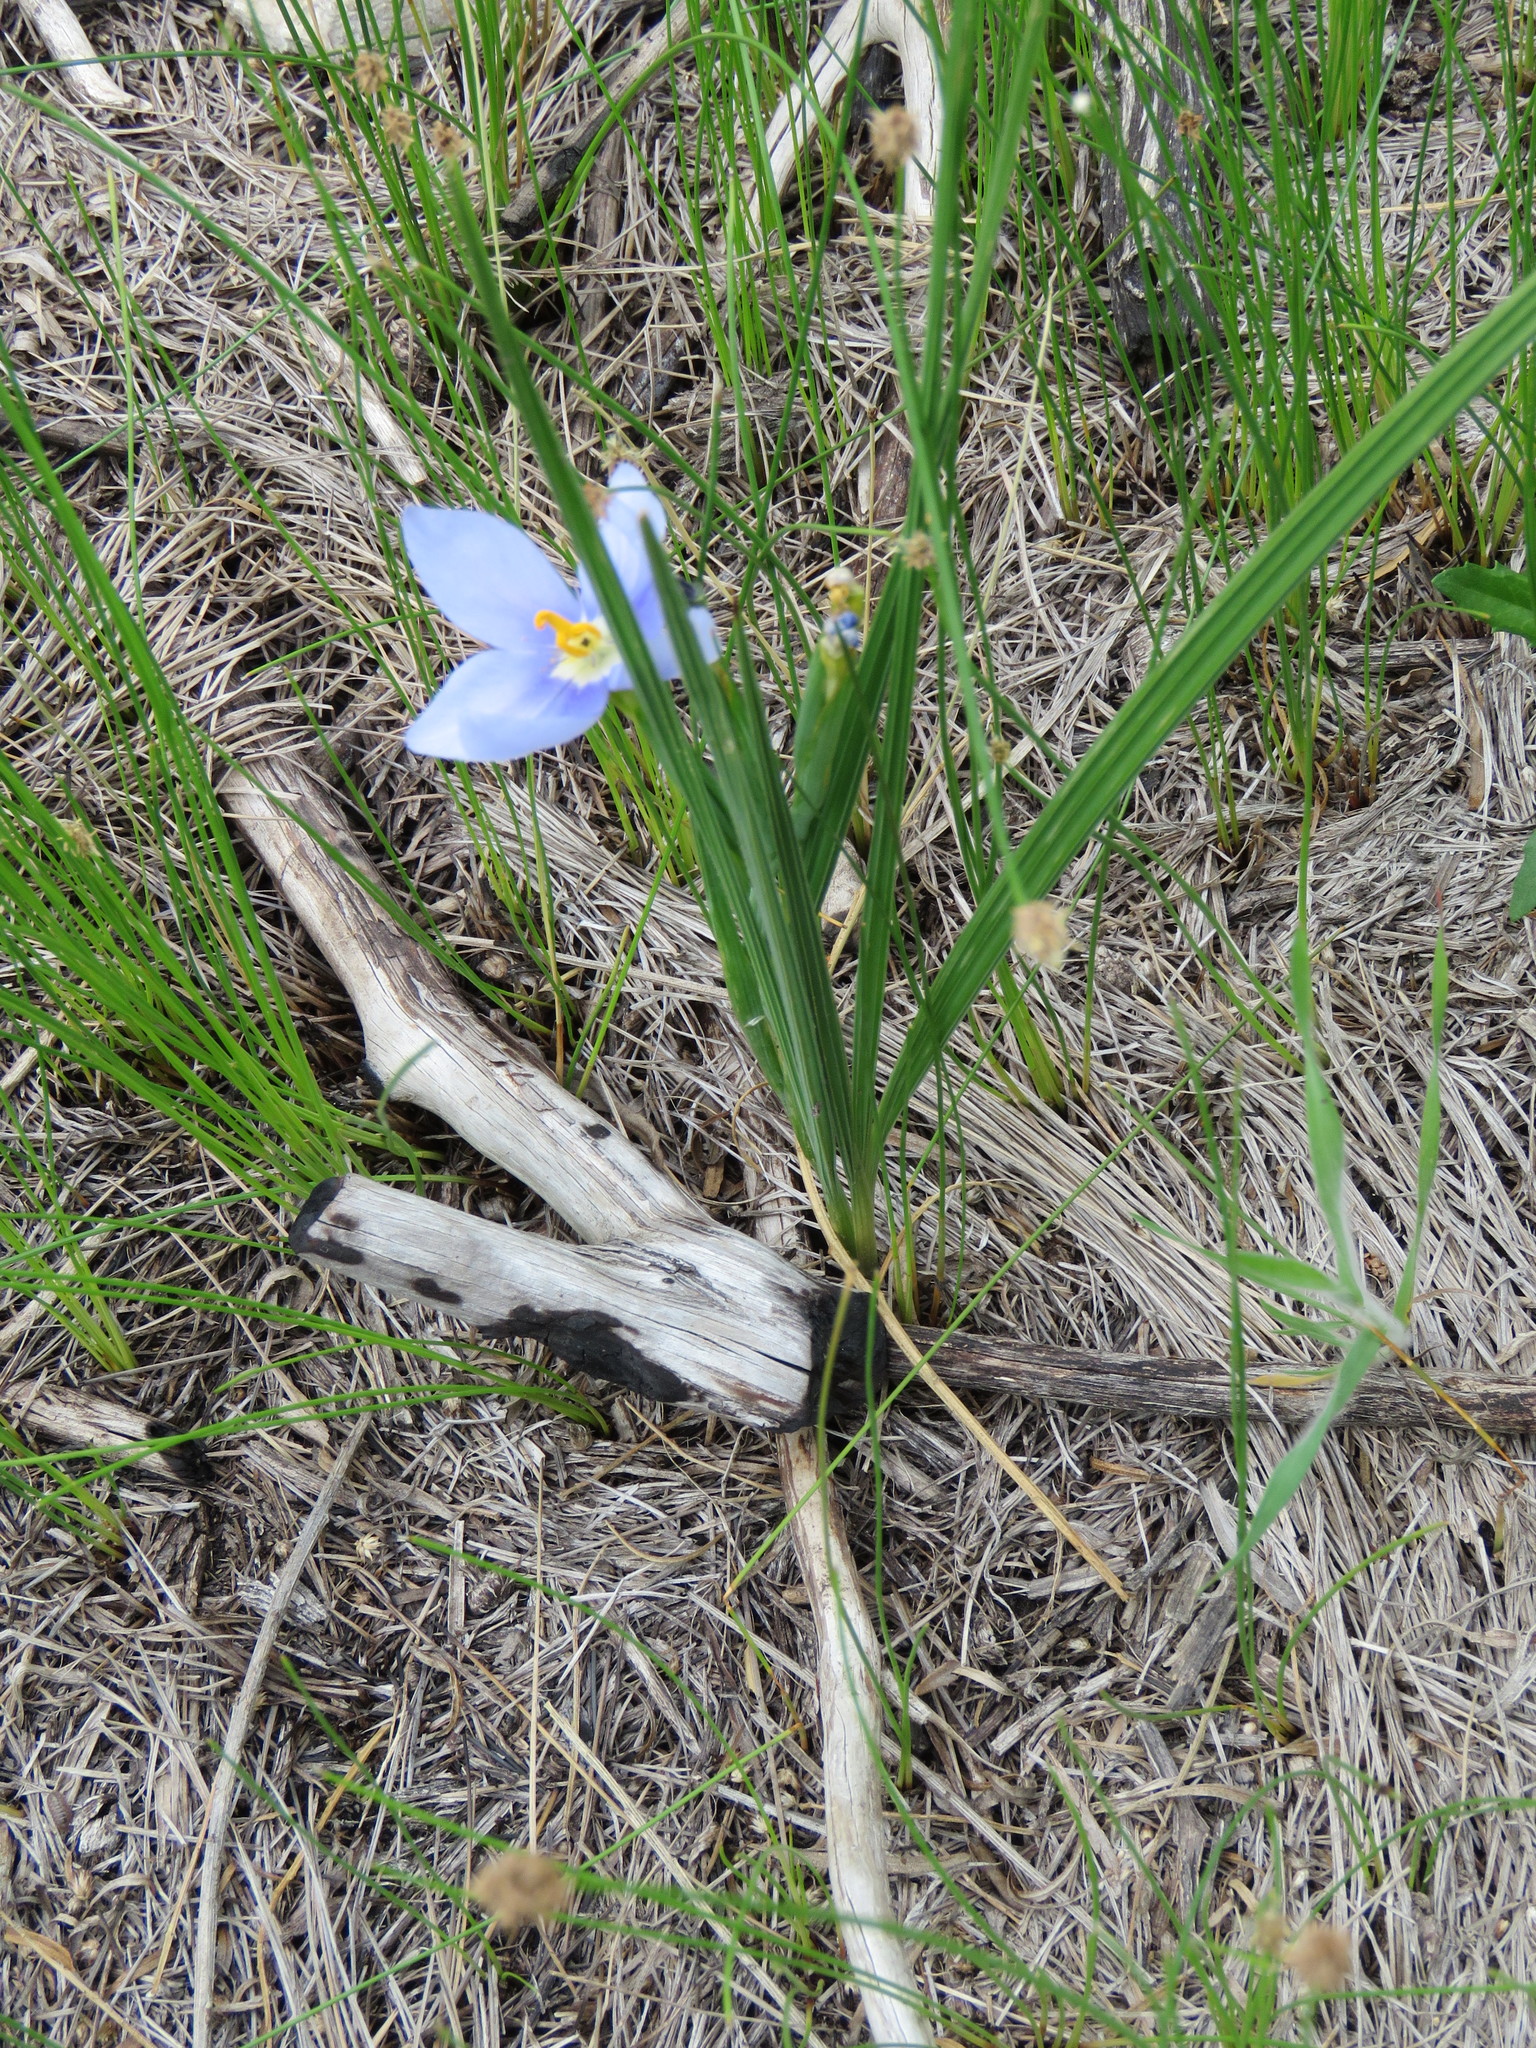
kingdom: Plantae
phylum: Tracheophyta
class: Liliopsida
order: Asparagales
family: Iridaceae
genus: Nemastylis
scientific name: Nemastylis geminiflora
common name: Prairie celestial
